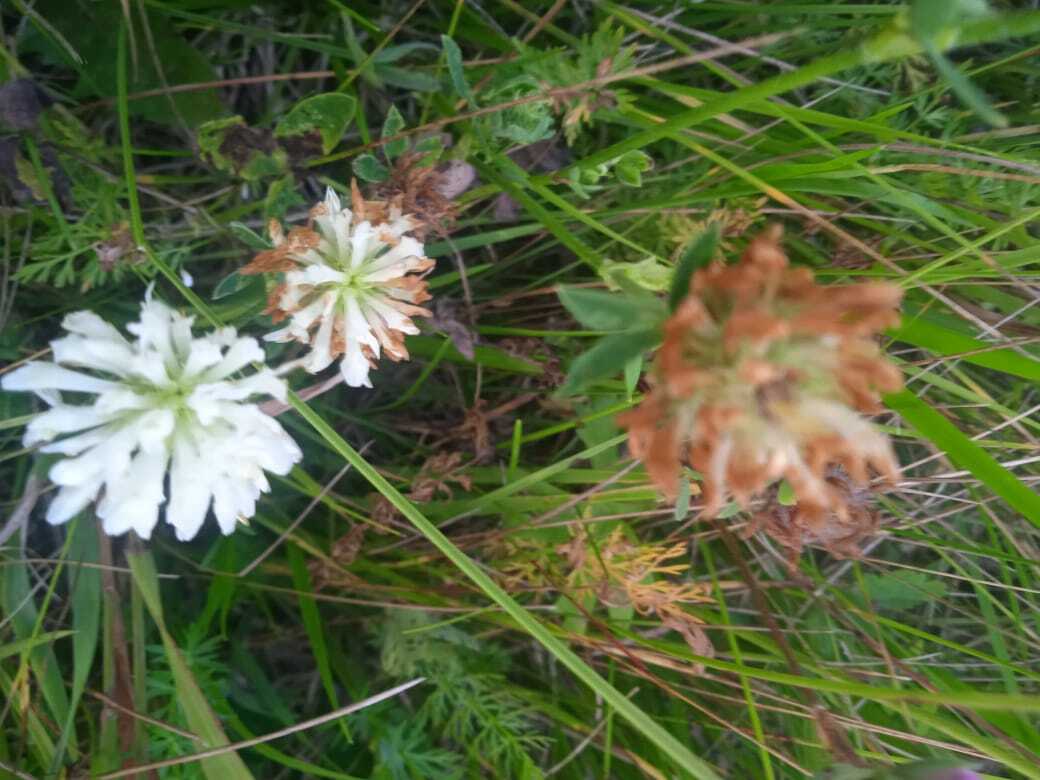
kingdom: Plantae
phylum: Tracheophyta
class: Magnoliopsida
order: Fabales
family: Fabaceae
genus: Trifolium
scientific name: Trifolium repens
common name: White clover
